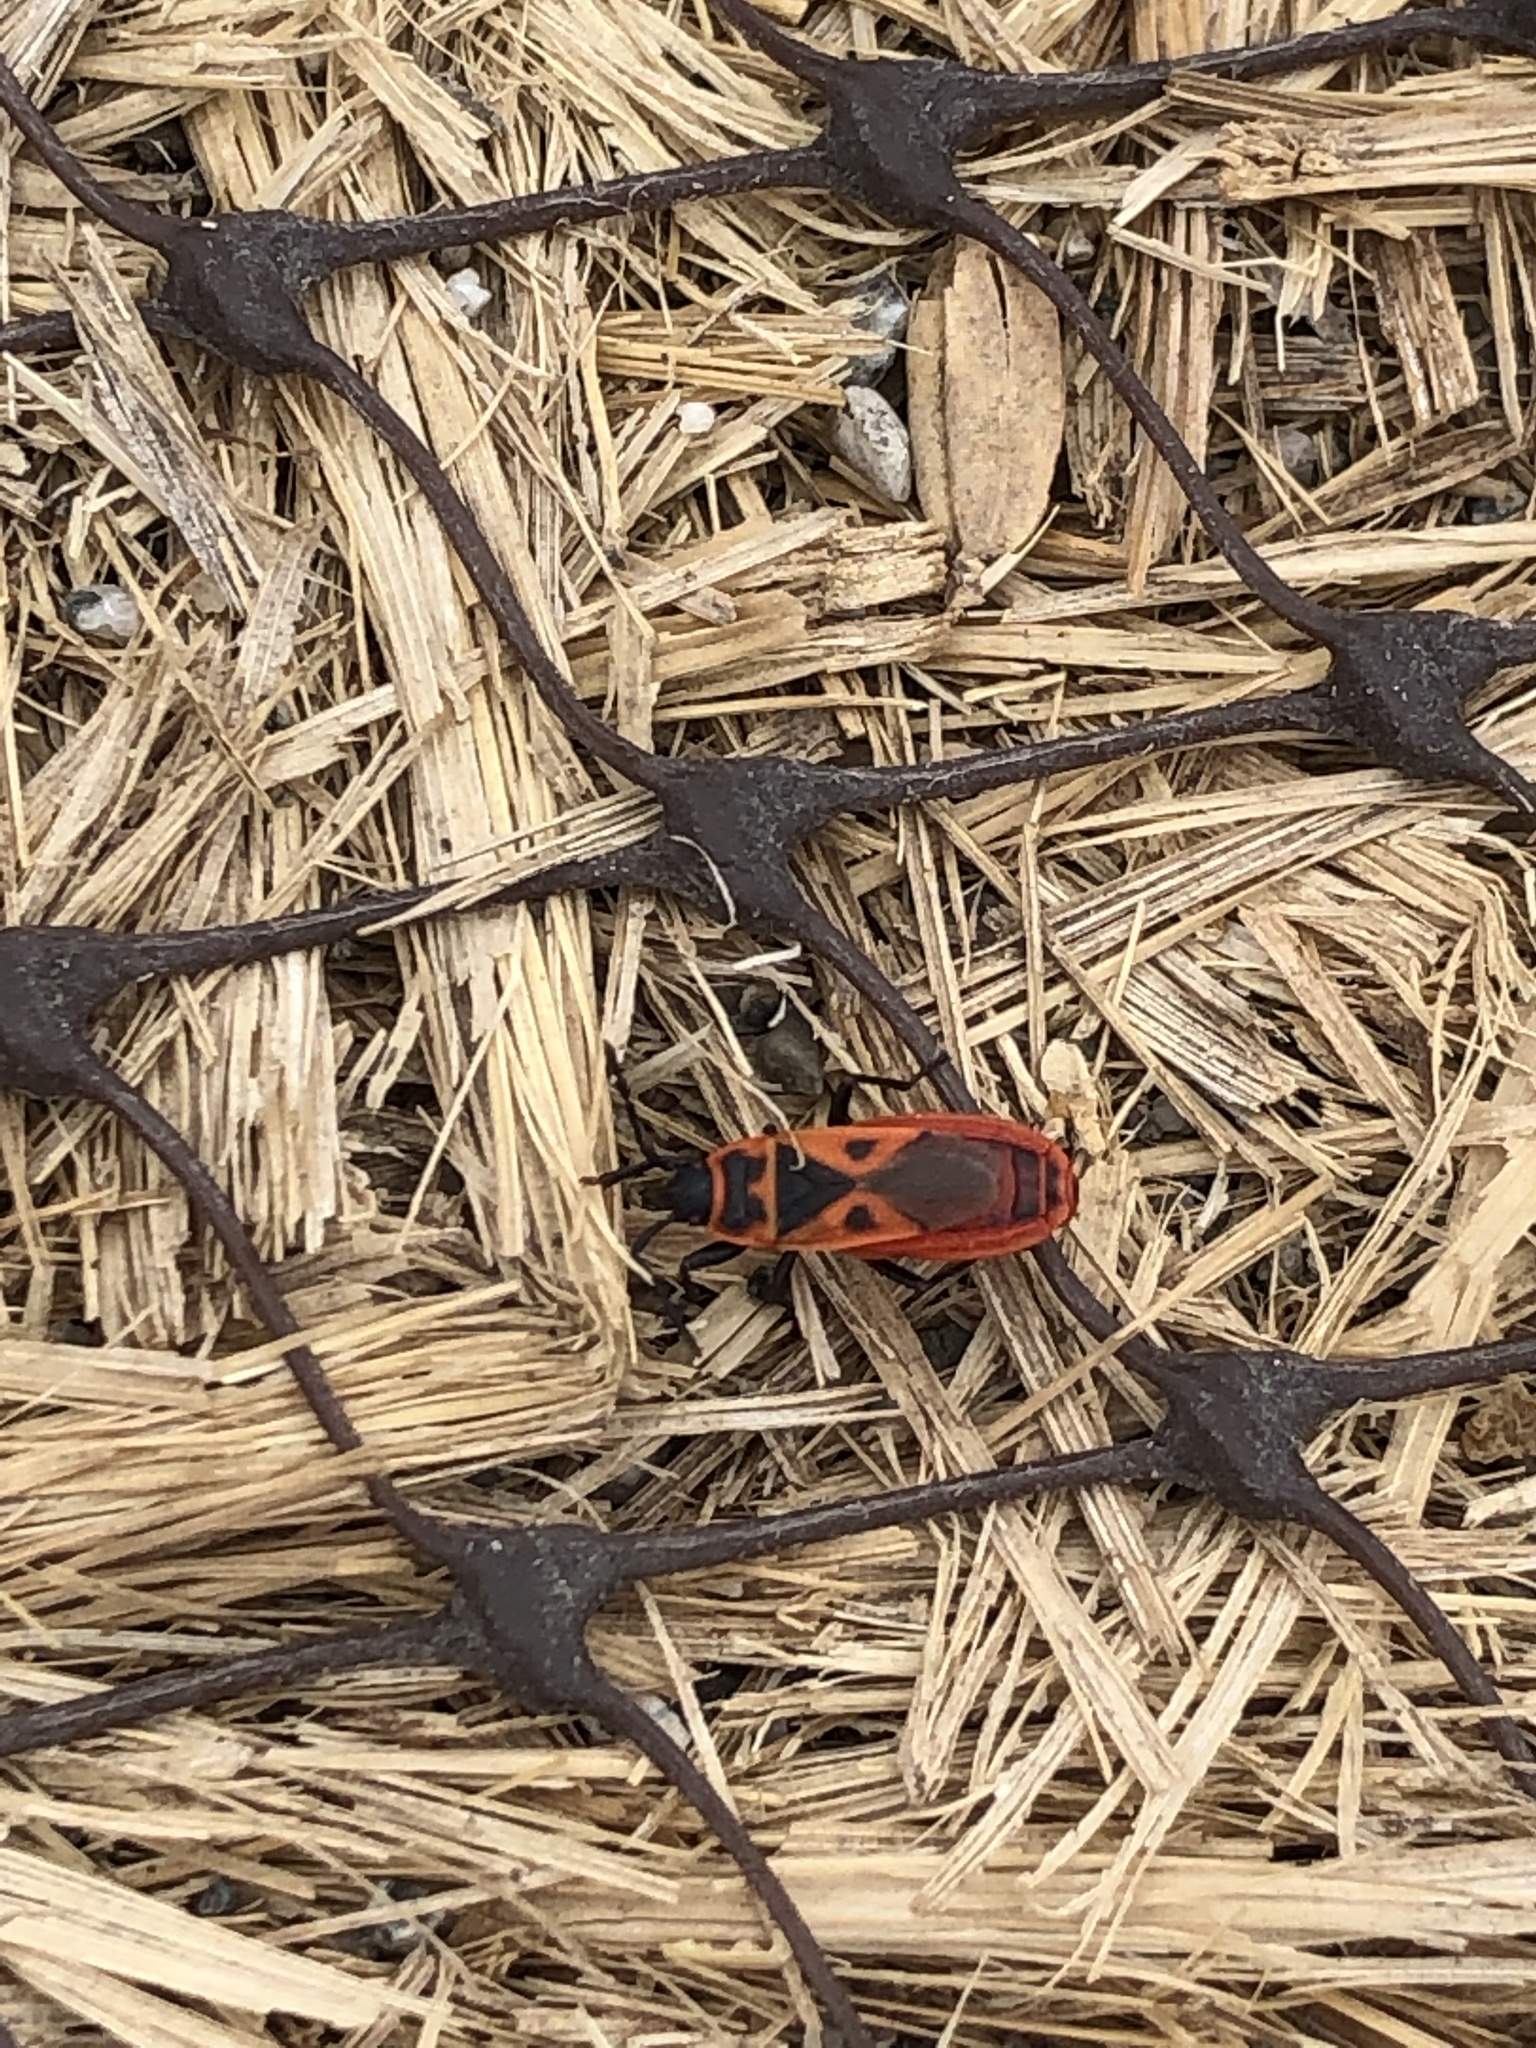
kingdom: Animalia
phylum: Arthropoda
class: Insecta
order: Hemiptera
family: Pyrrhocoridae
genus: Scantius
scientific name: Scantius aegyptius
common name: Red bug
